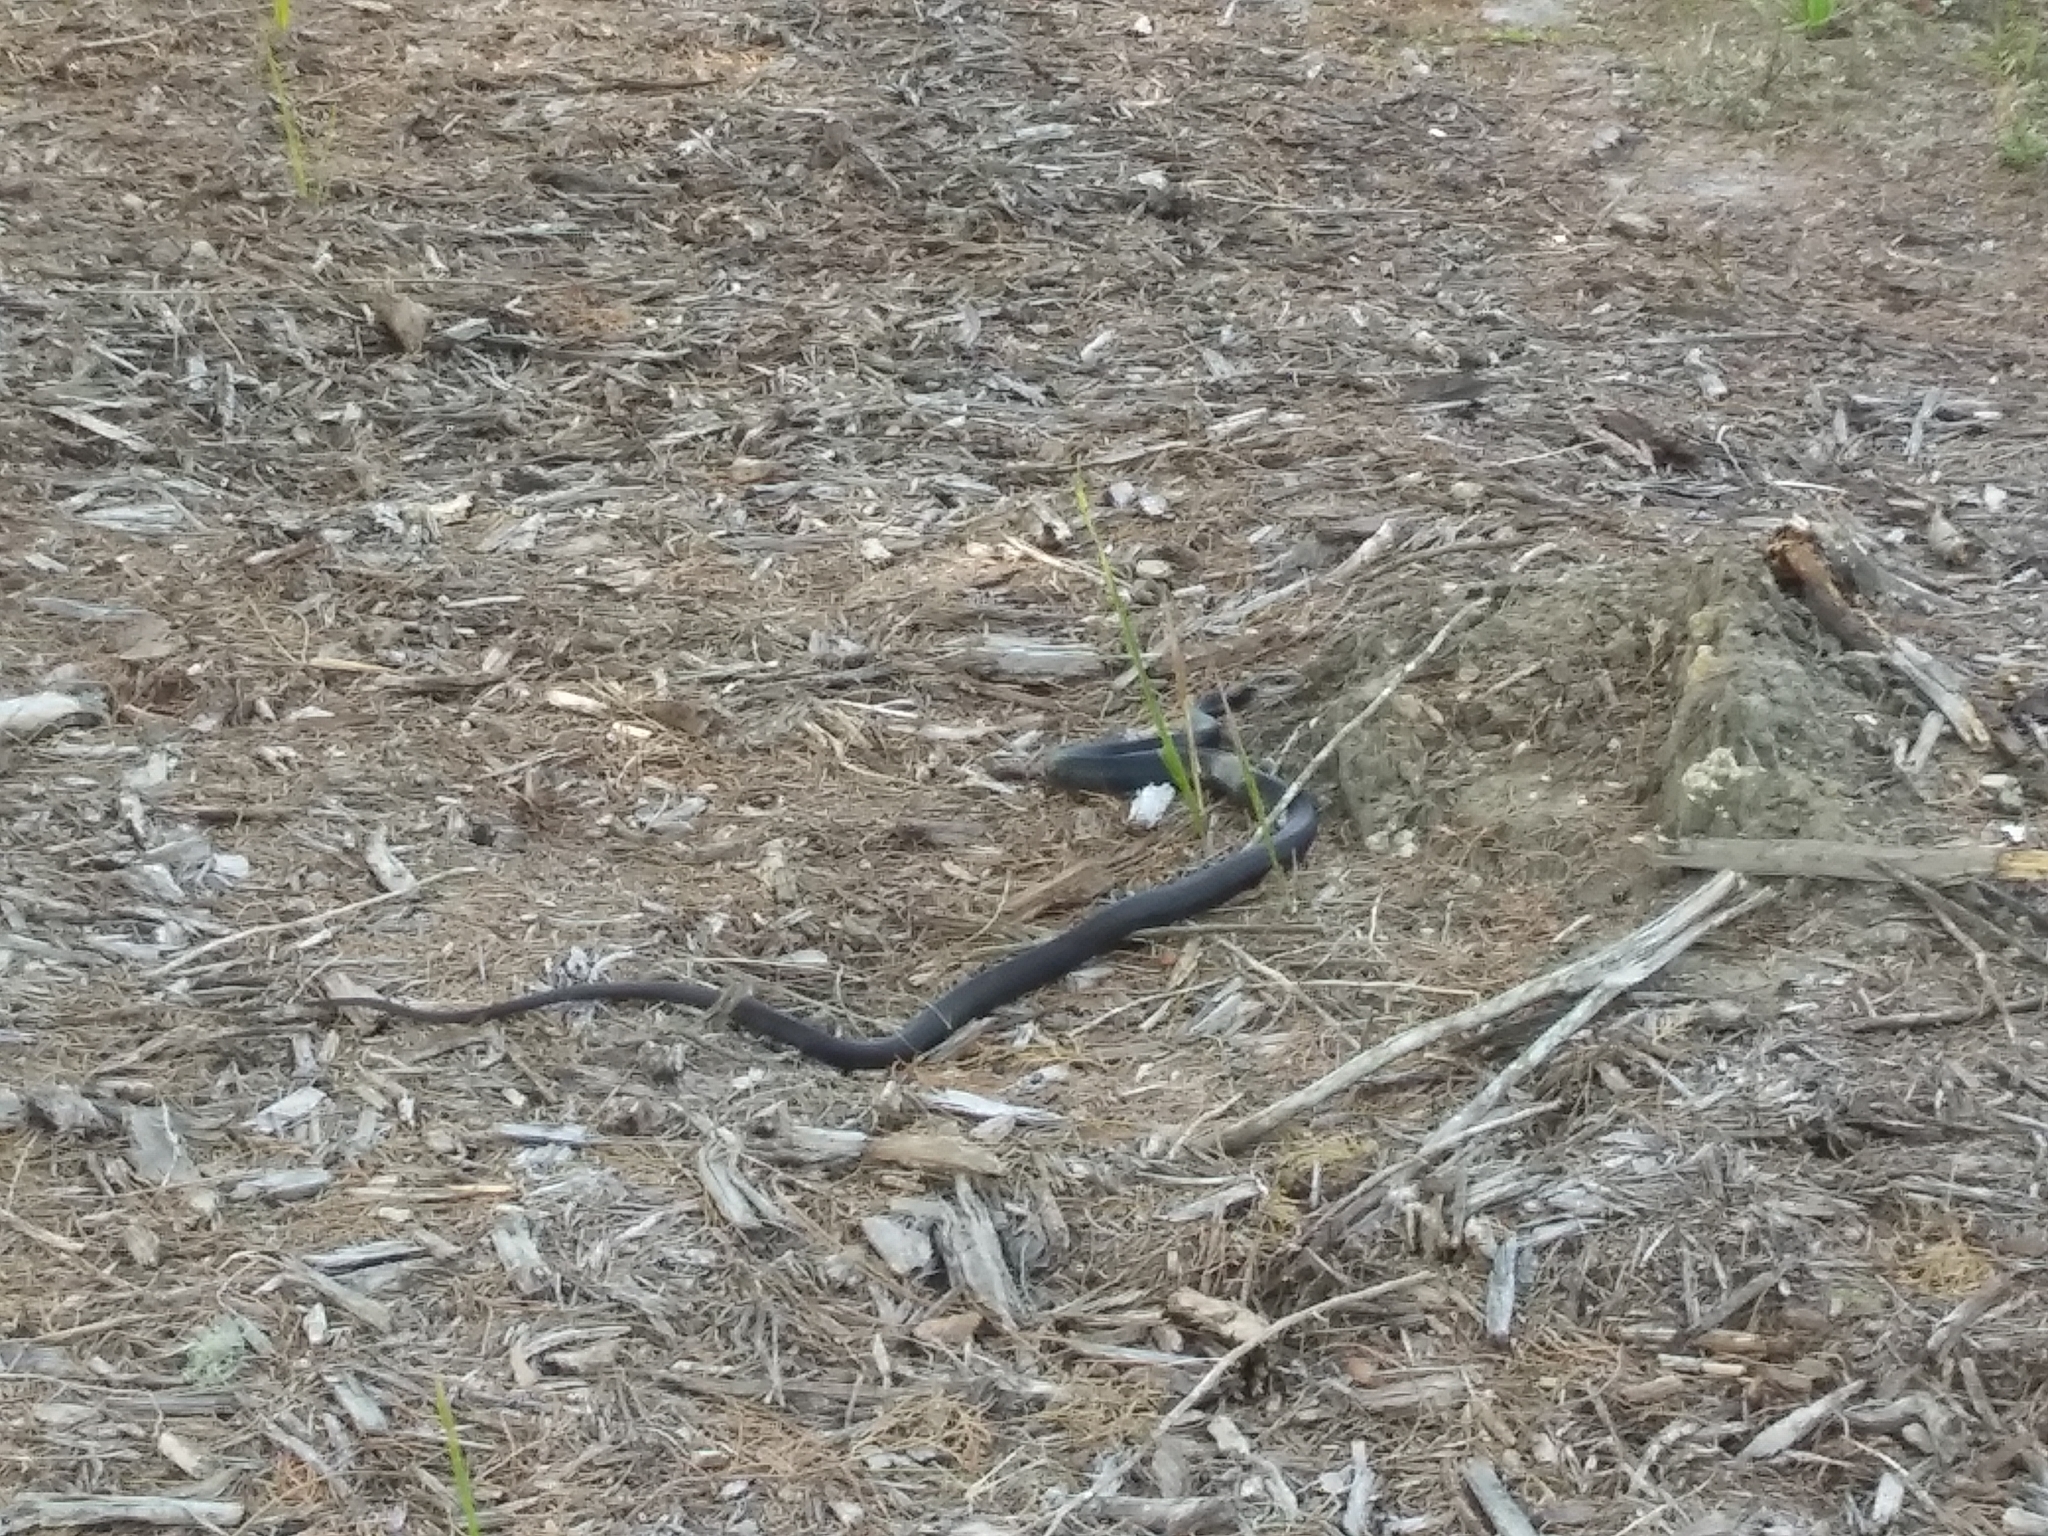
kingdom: Animalia
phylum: Chordata
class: Squamata
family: Colubridae
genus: Coluber
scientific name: Coluber constrictor
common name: Eastern racer
